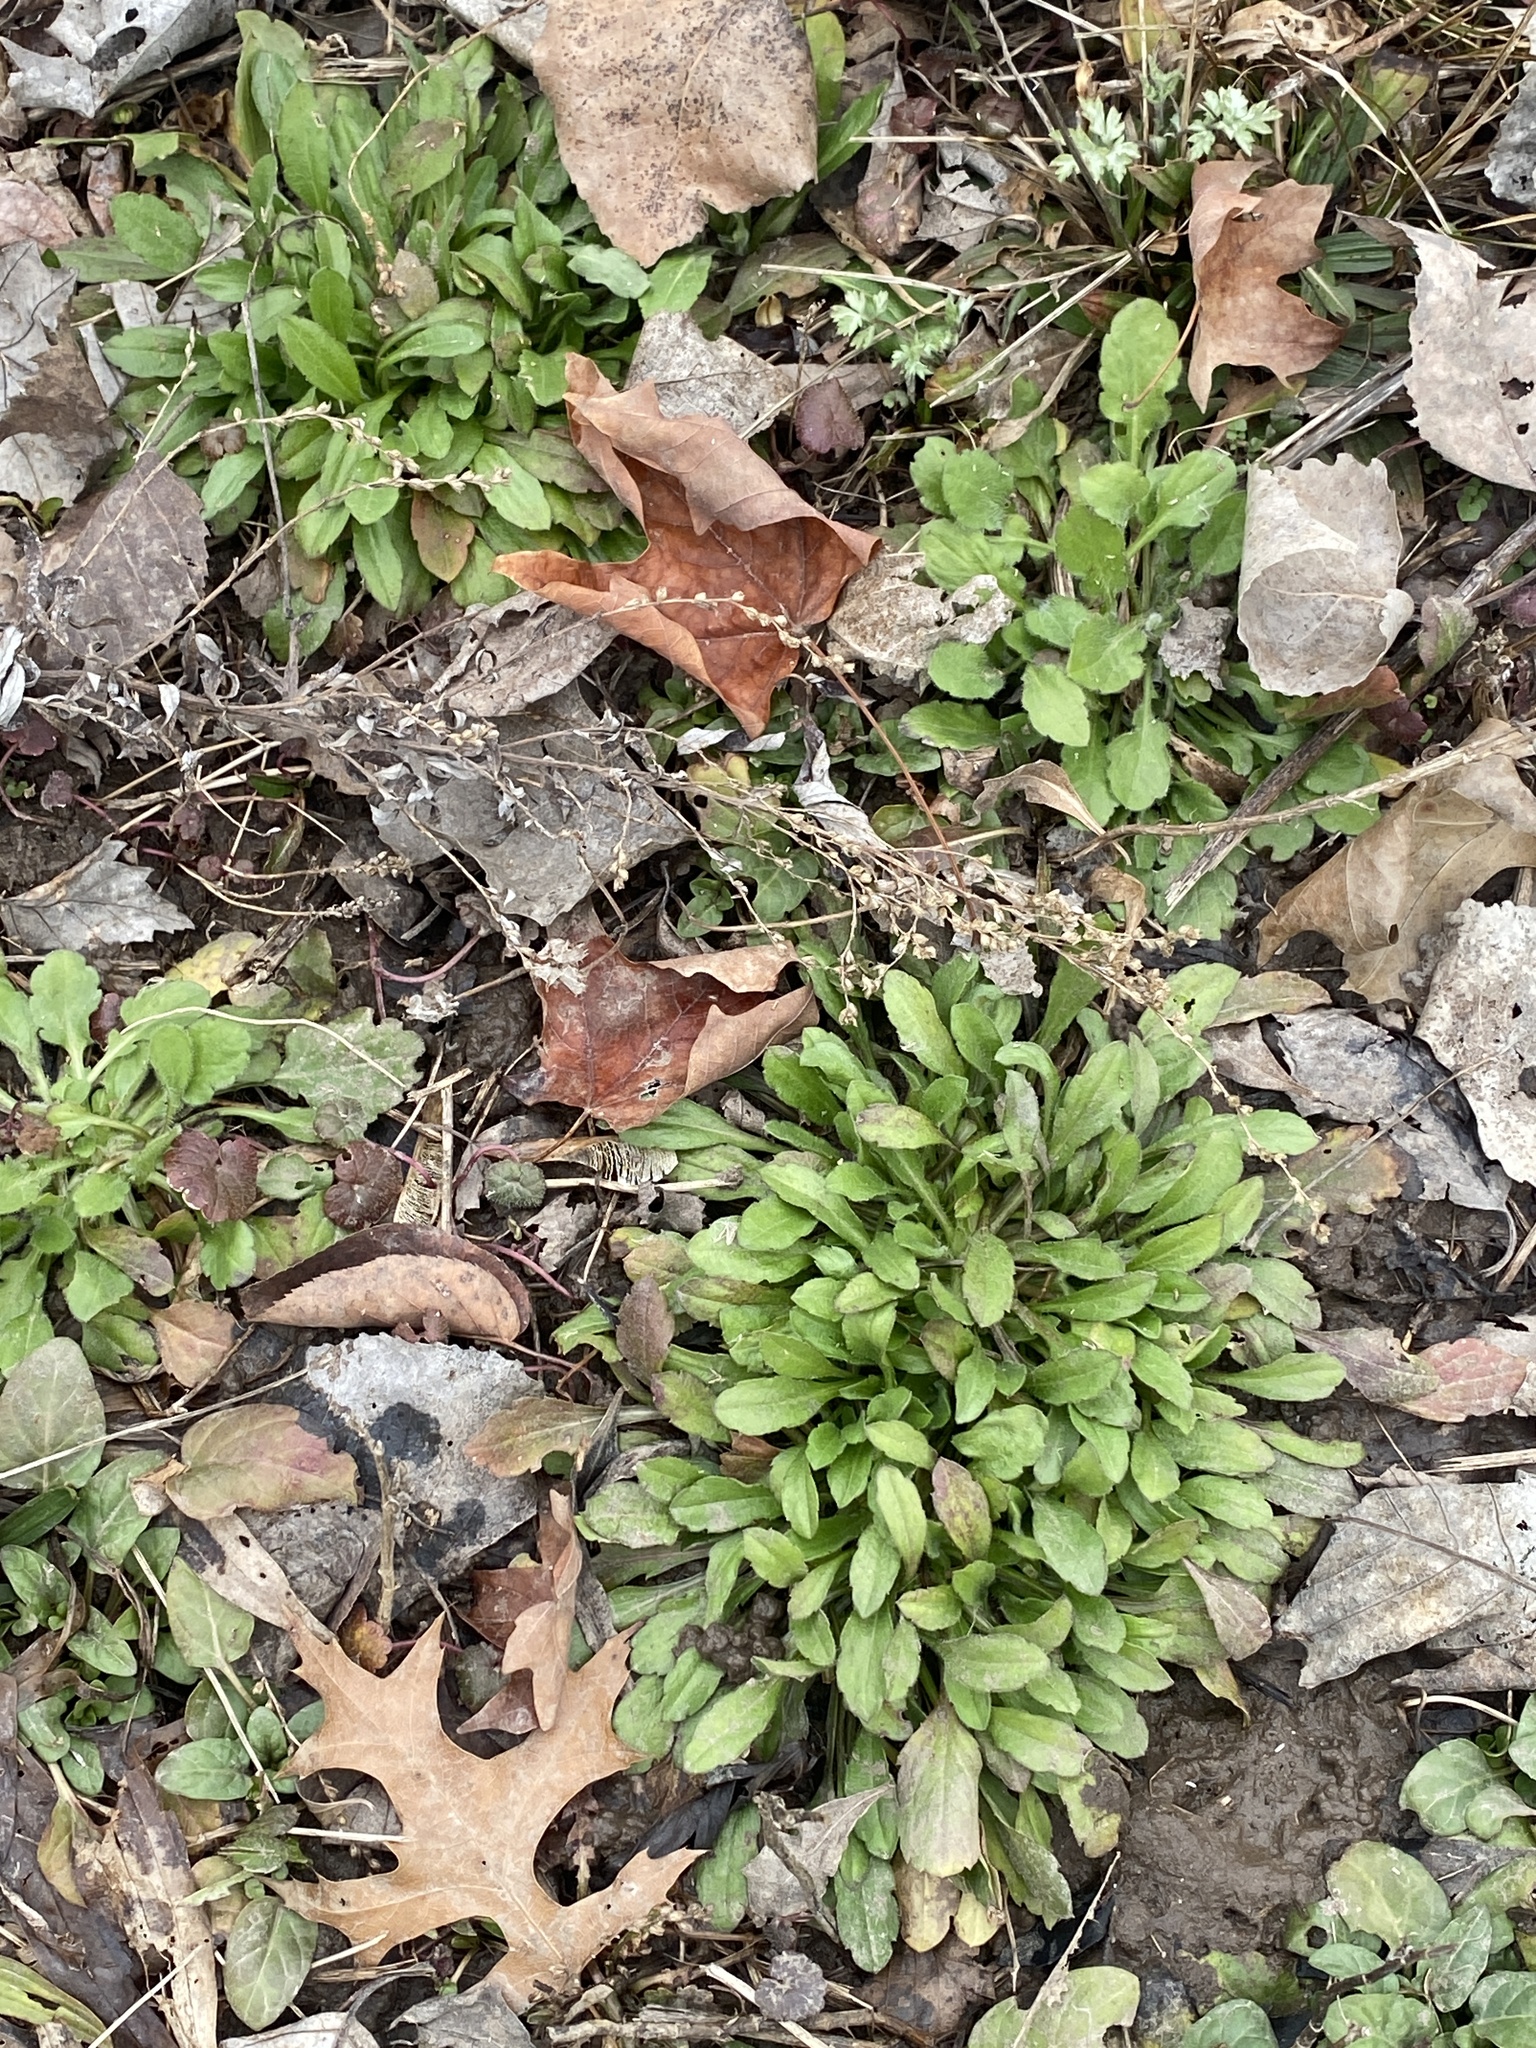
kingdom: Plantae
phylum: Tracheophyta
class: Magnoliopsida
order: Asterales
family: Asteraceae
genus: Erigeron
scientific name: Erigeron canadensis
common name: Canadian fleabane
